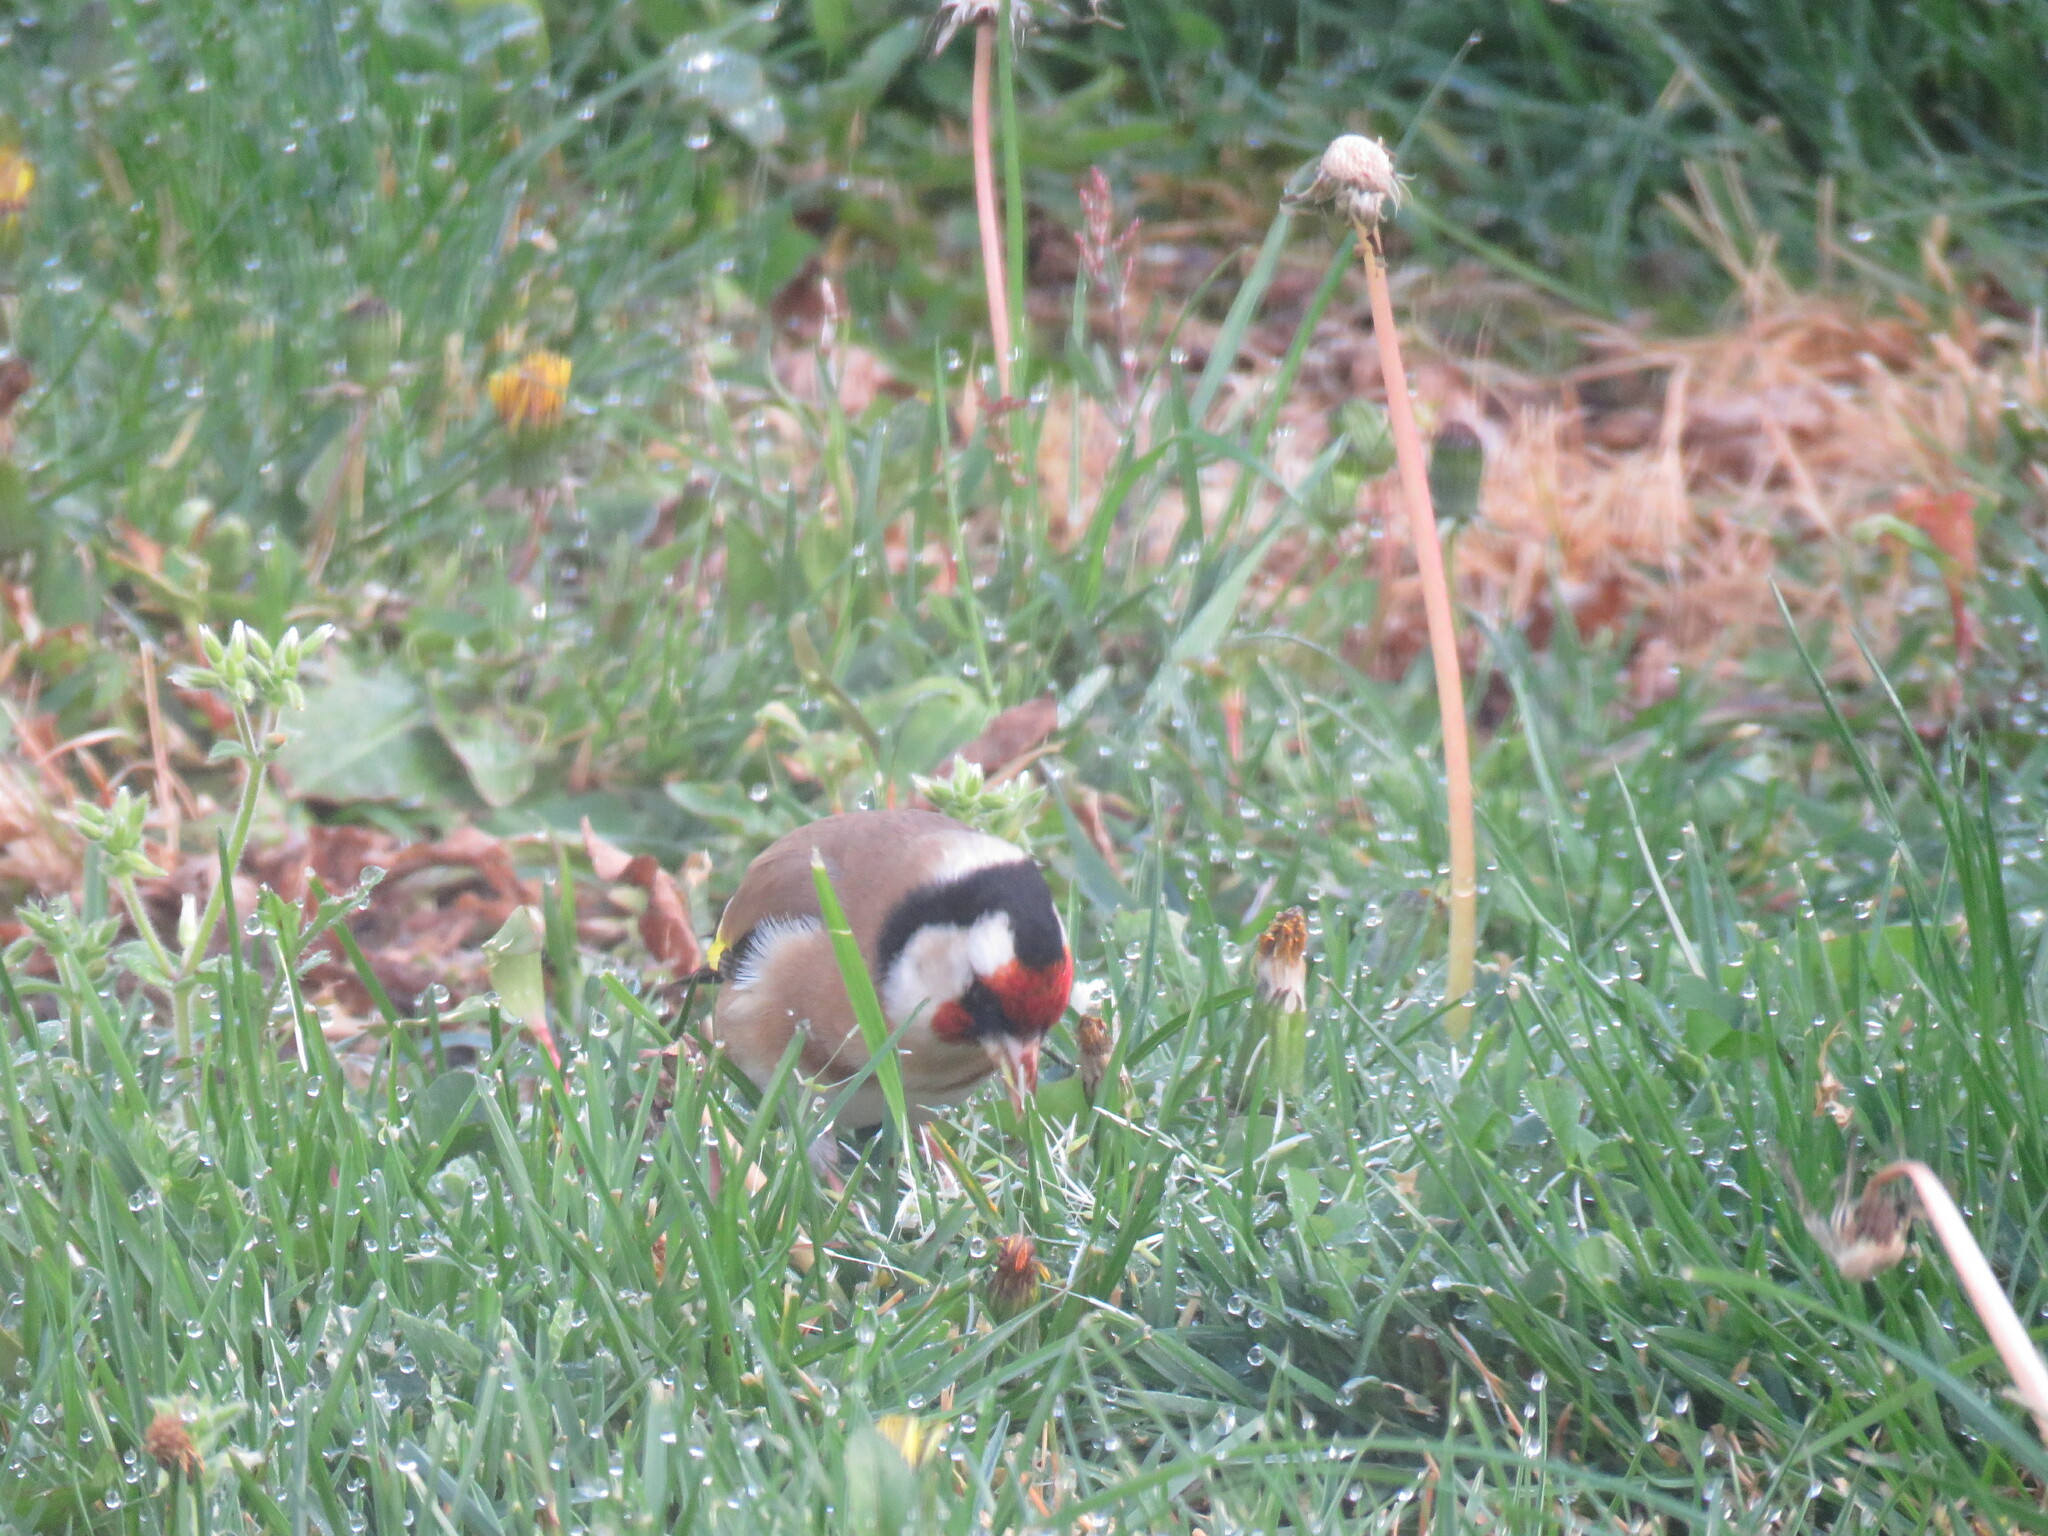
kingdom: Animalia
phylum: Chordata
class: Aves
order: Passeriformes
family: Fringillidae
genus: Carduelis
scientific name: Carduelis carduelis
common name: European goldfinch
